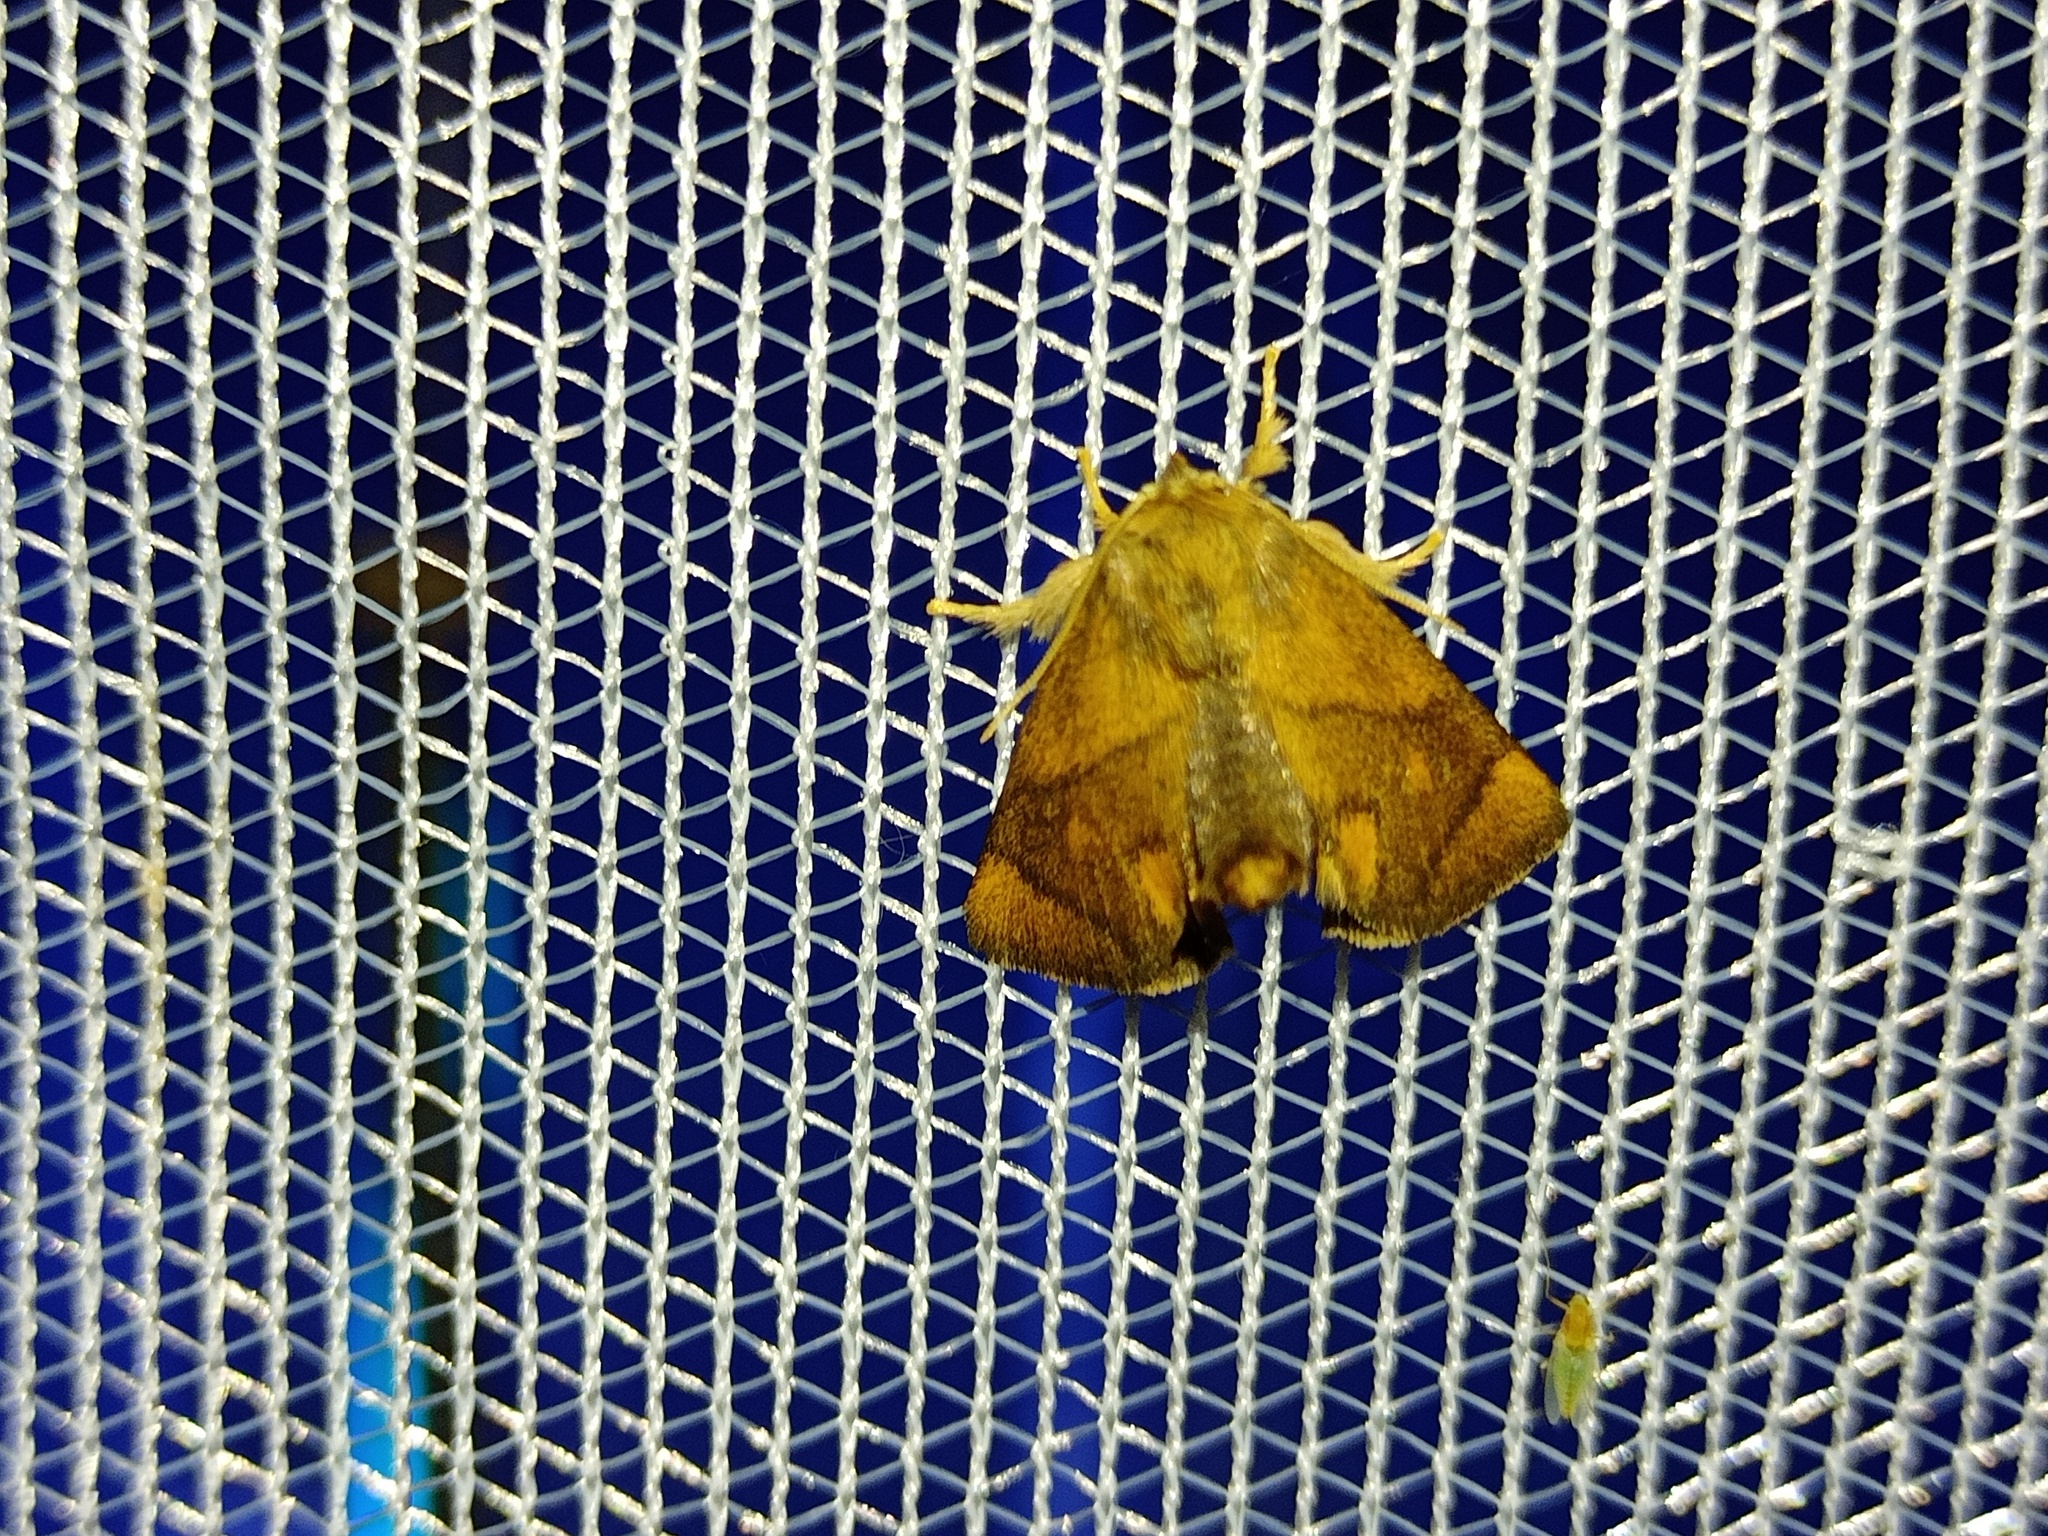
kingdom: Animalia
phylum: Arthropoda
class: Insecta
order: Lepidoptera
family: Limacodidae
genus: Apoda
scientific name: Apoda limacodes
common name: Festoon
